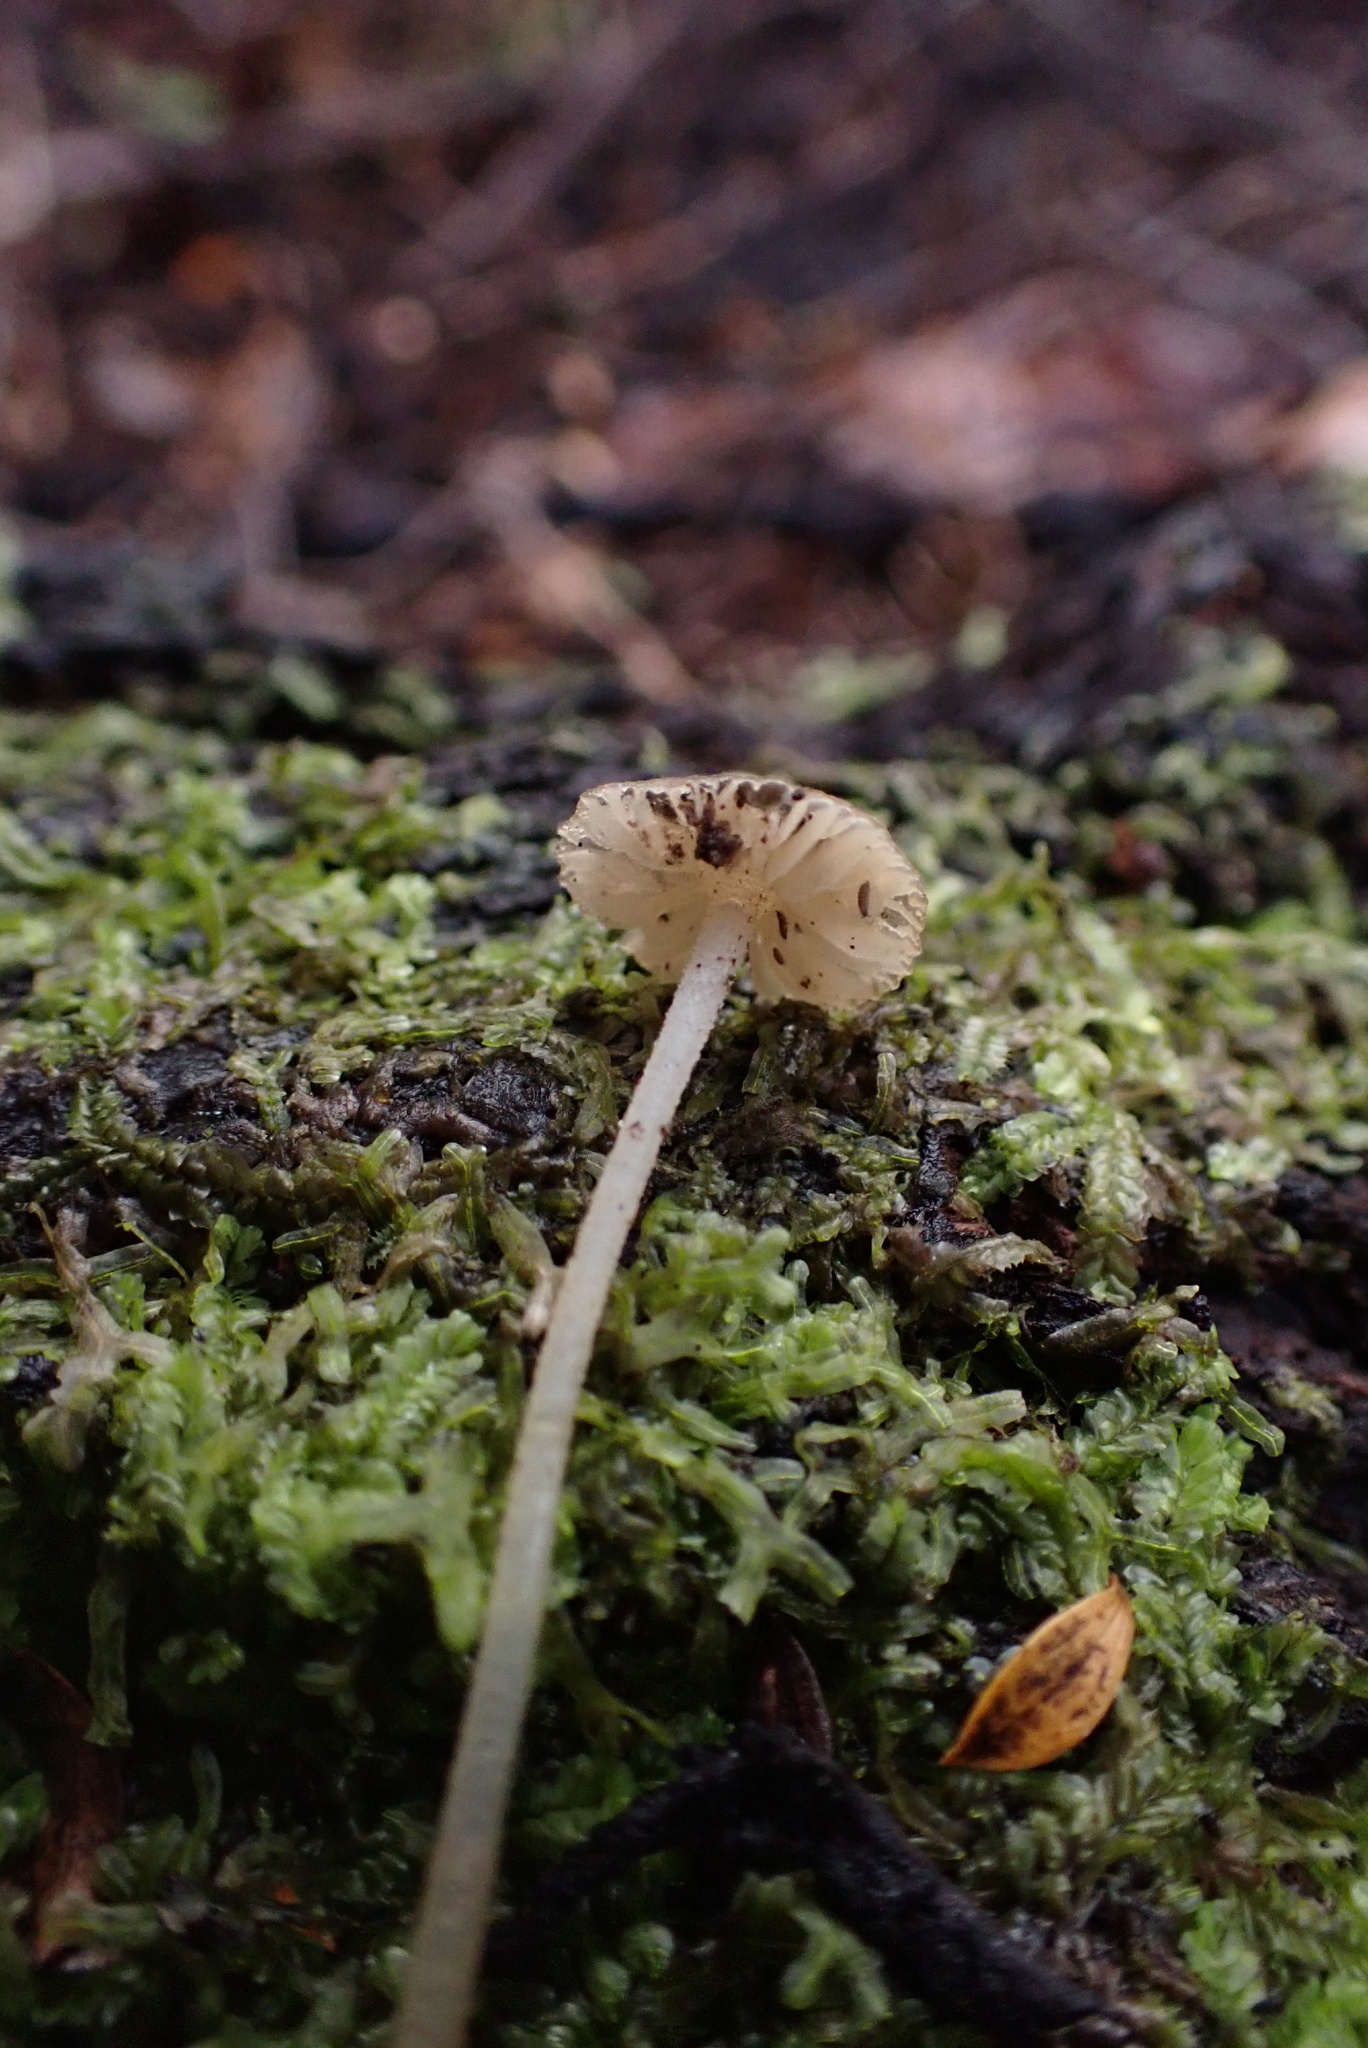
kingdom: Fungi
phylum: Basidiomycota
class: Agaricomycetes
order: Agaricales
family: Porotheleaceae
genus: Pseudohydropus
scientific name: Pseudohydropus parafunebris
